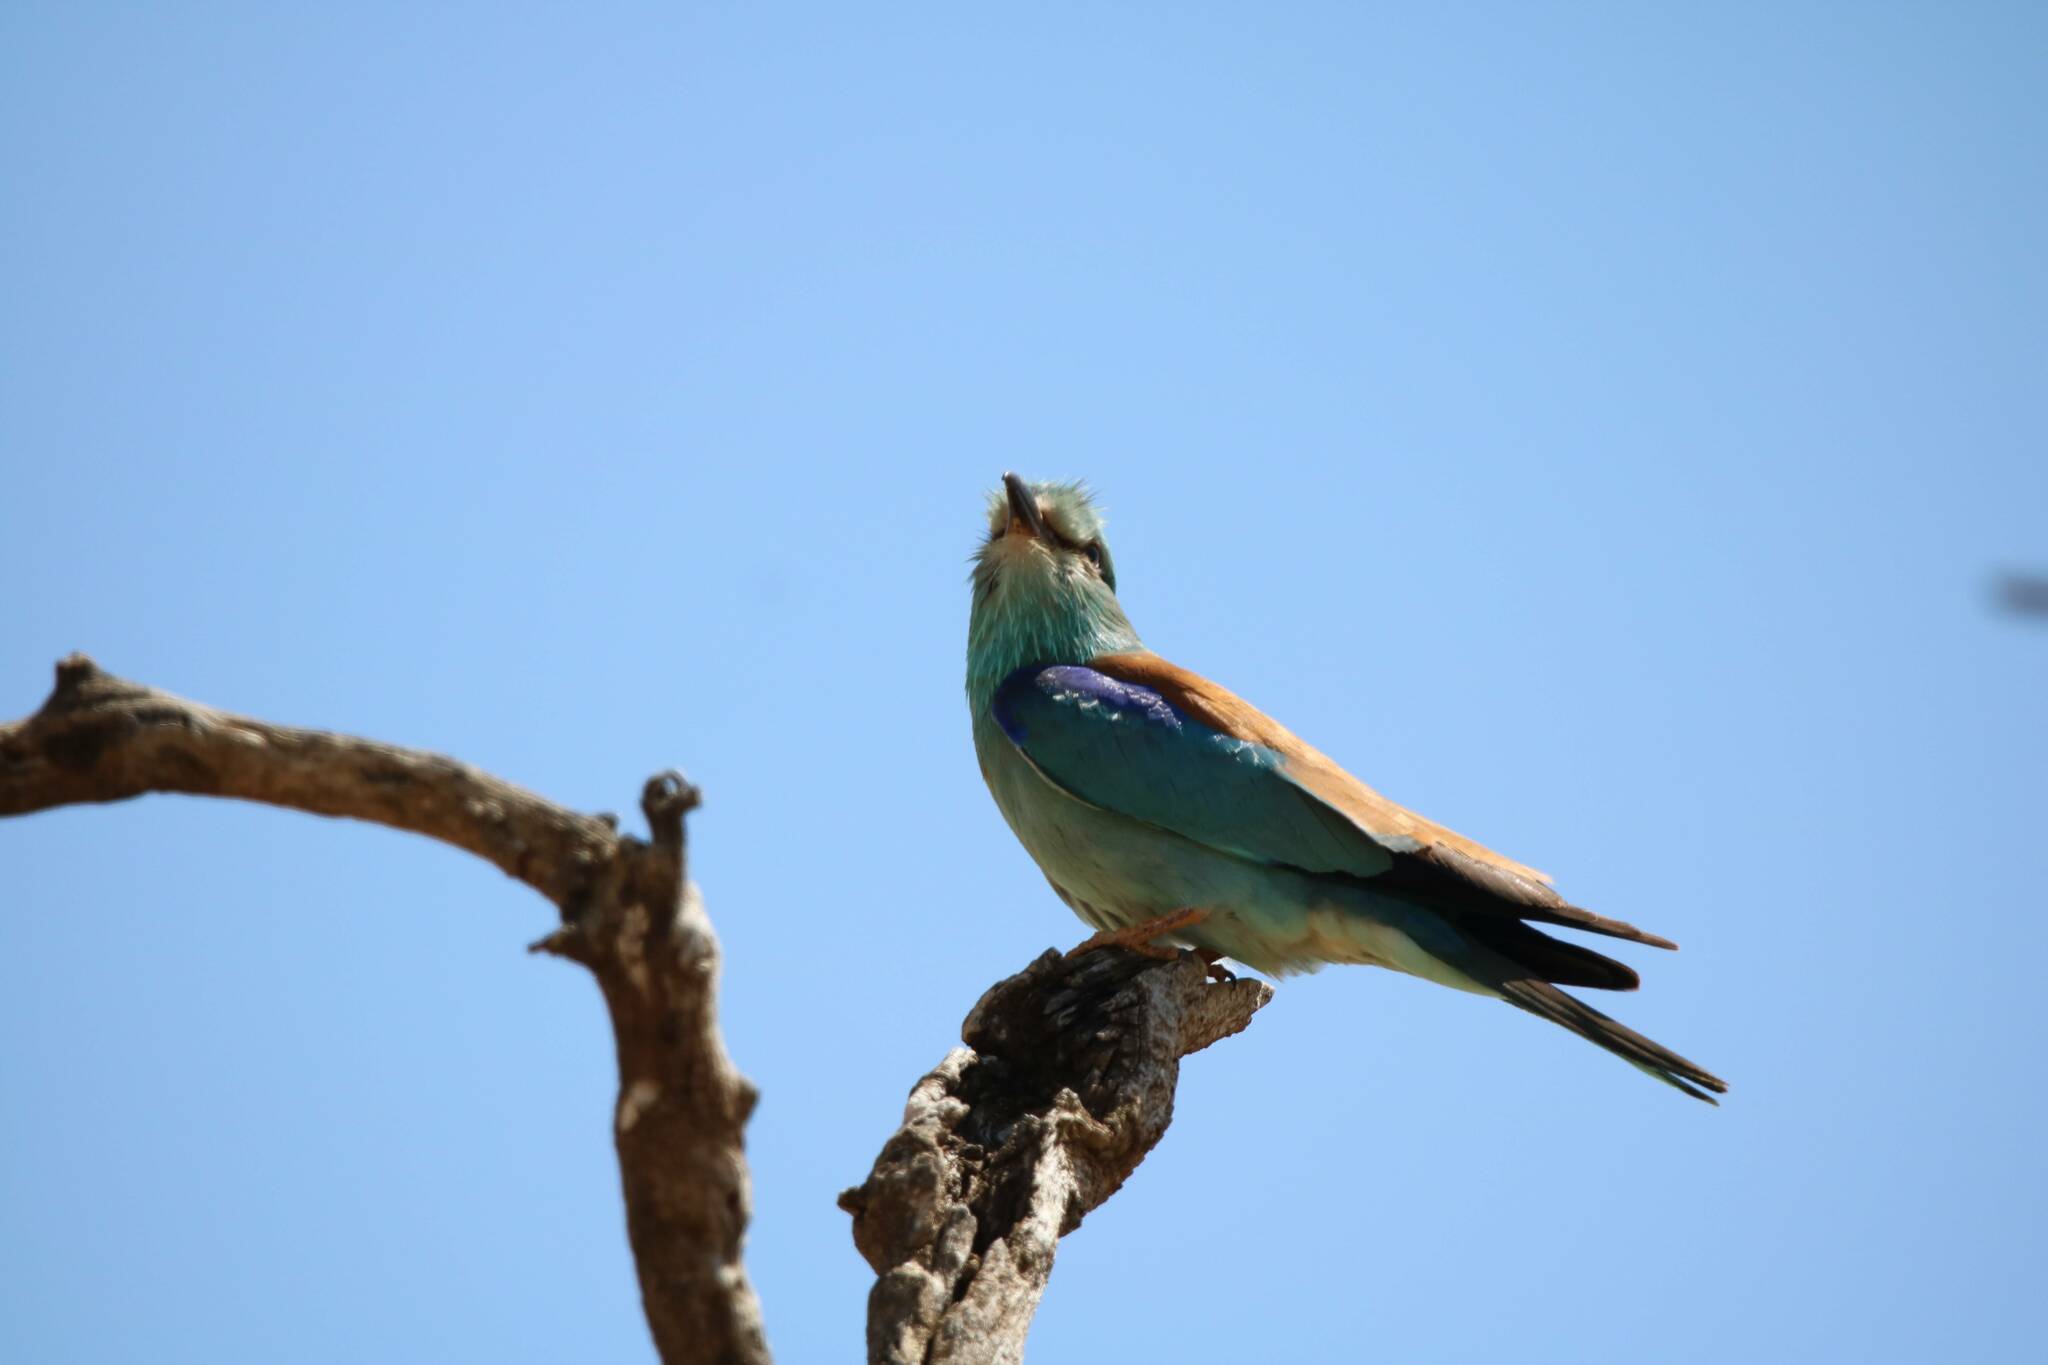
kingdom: Animalia
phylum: Chordata
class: Aves
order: Coraciiformes
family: Coraciidae
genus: Coracias
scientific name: Coracias garrulus
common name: European roller
